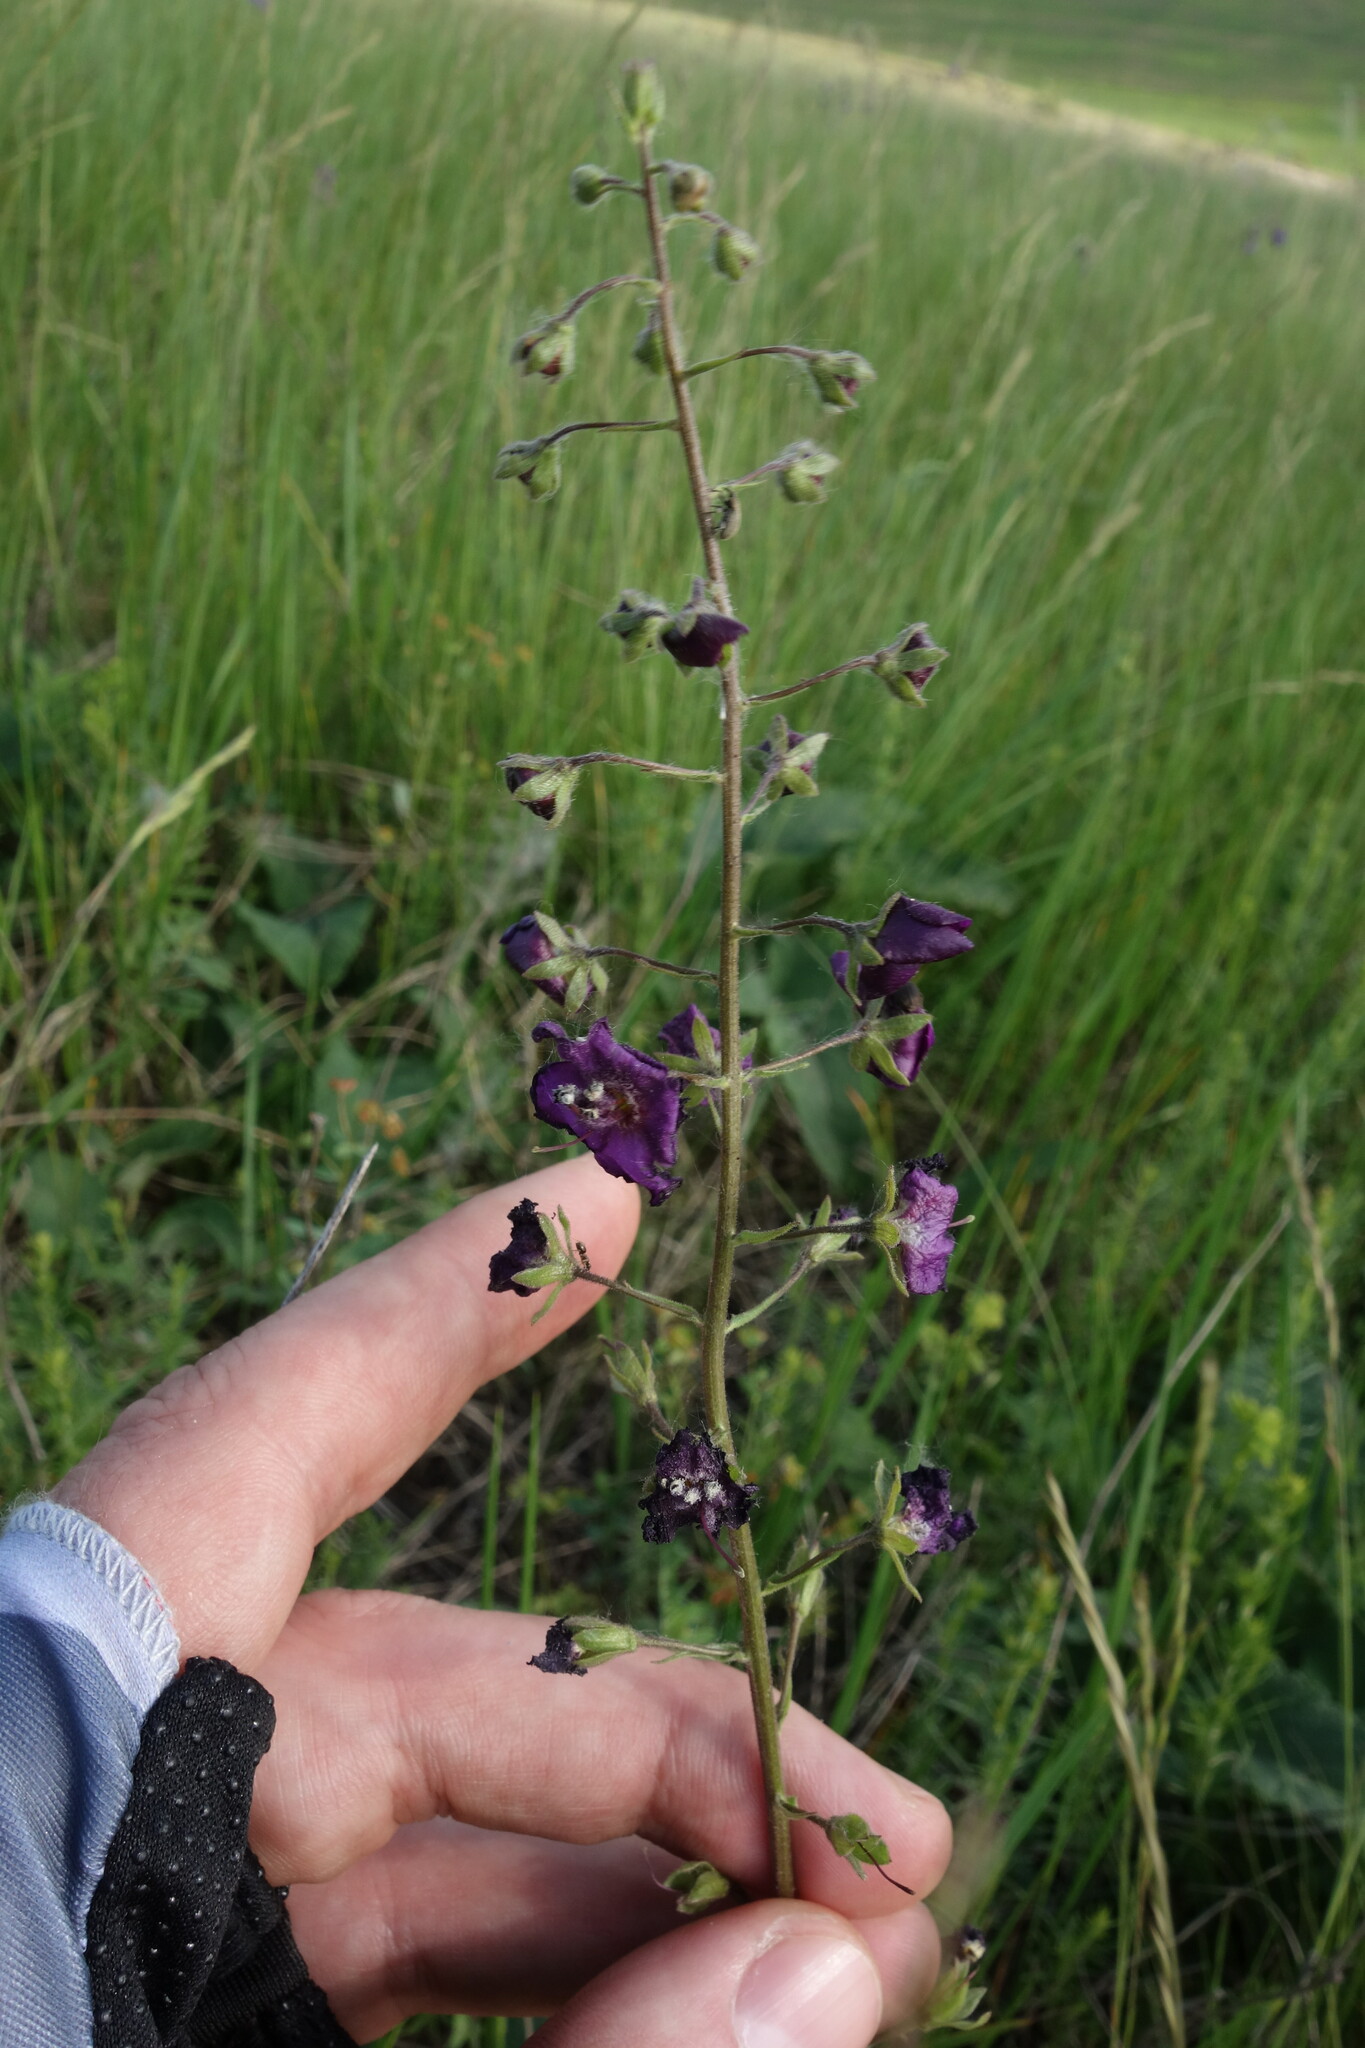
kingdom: Plantae
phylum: Tracheophyta
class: Magnoliopsida
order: Lamiales
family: Scrophulariaceae
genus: Verbascum
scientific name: Verbascum phoeniceum
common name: Purple mullein
